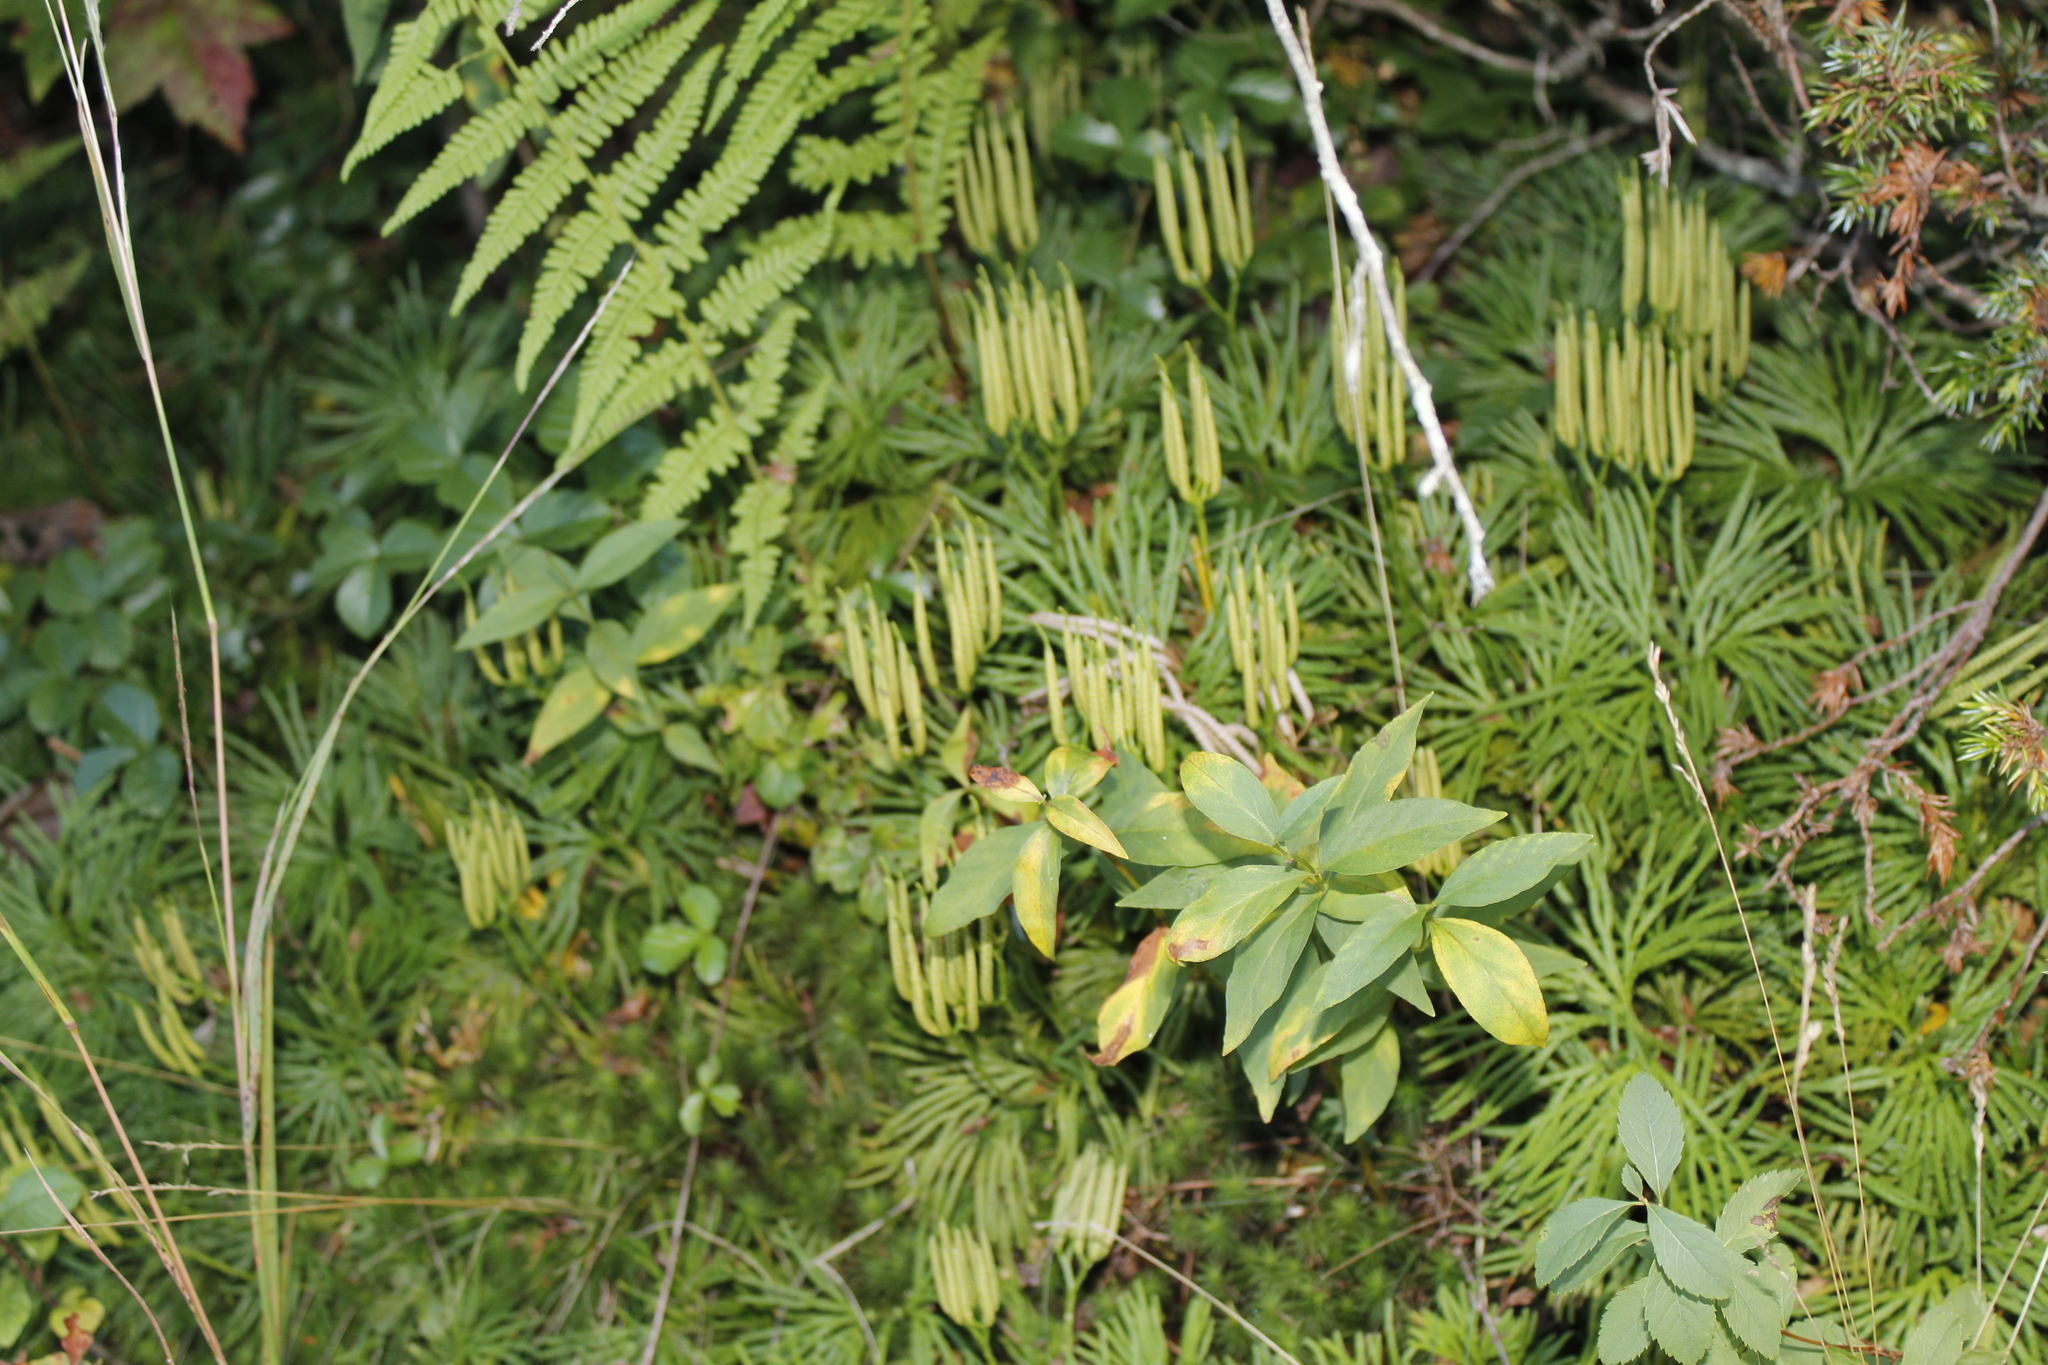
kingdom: Plantae
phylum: Tracheophyta
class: Lycopodiopsida
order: Lycopodiales
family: Lycopodiaceae
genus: Diphasiastrum
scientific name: Diphasiastrum digitatum
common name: Southern running-pine
